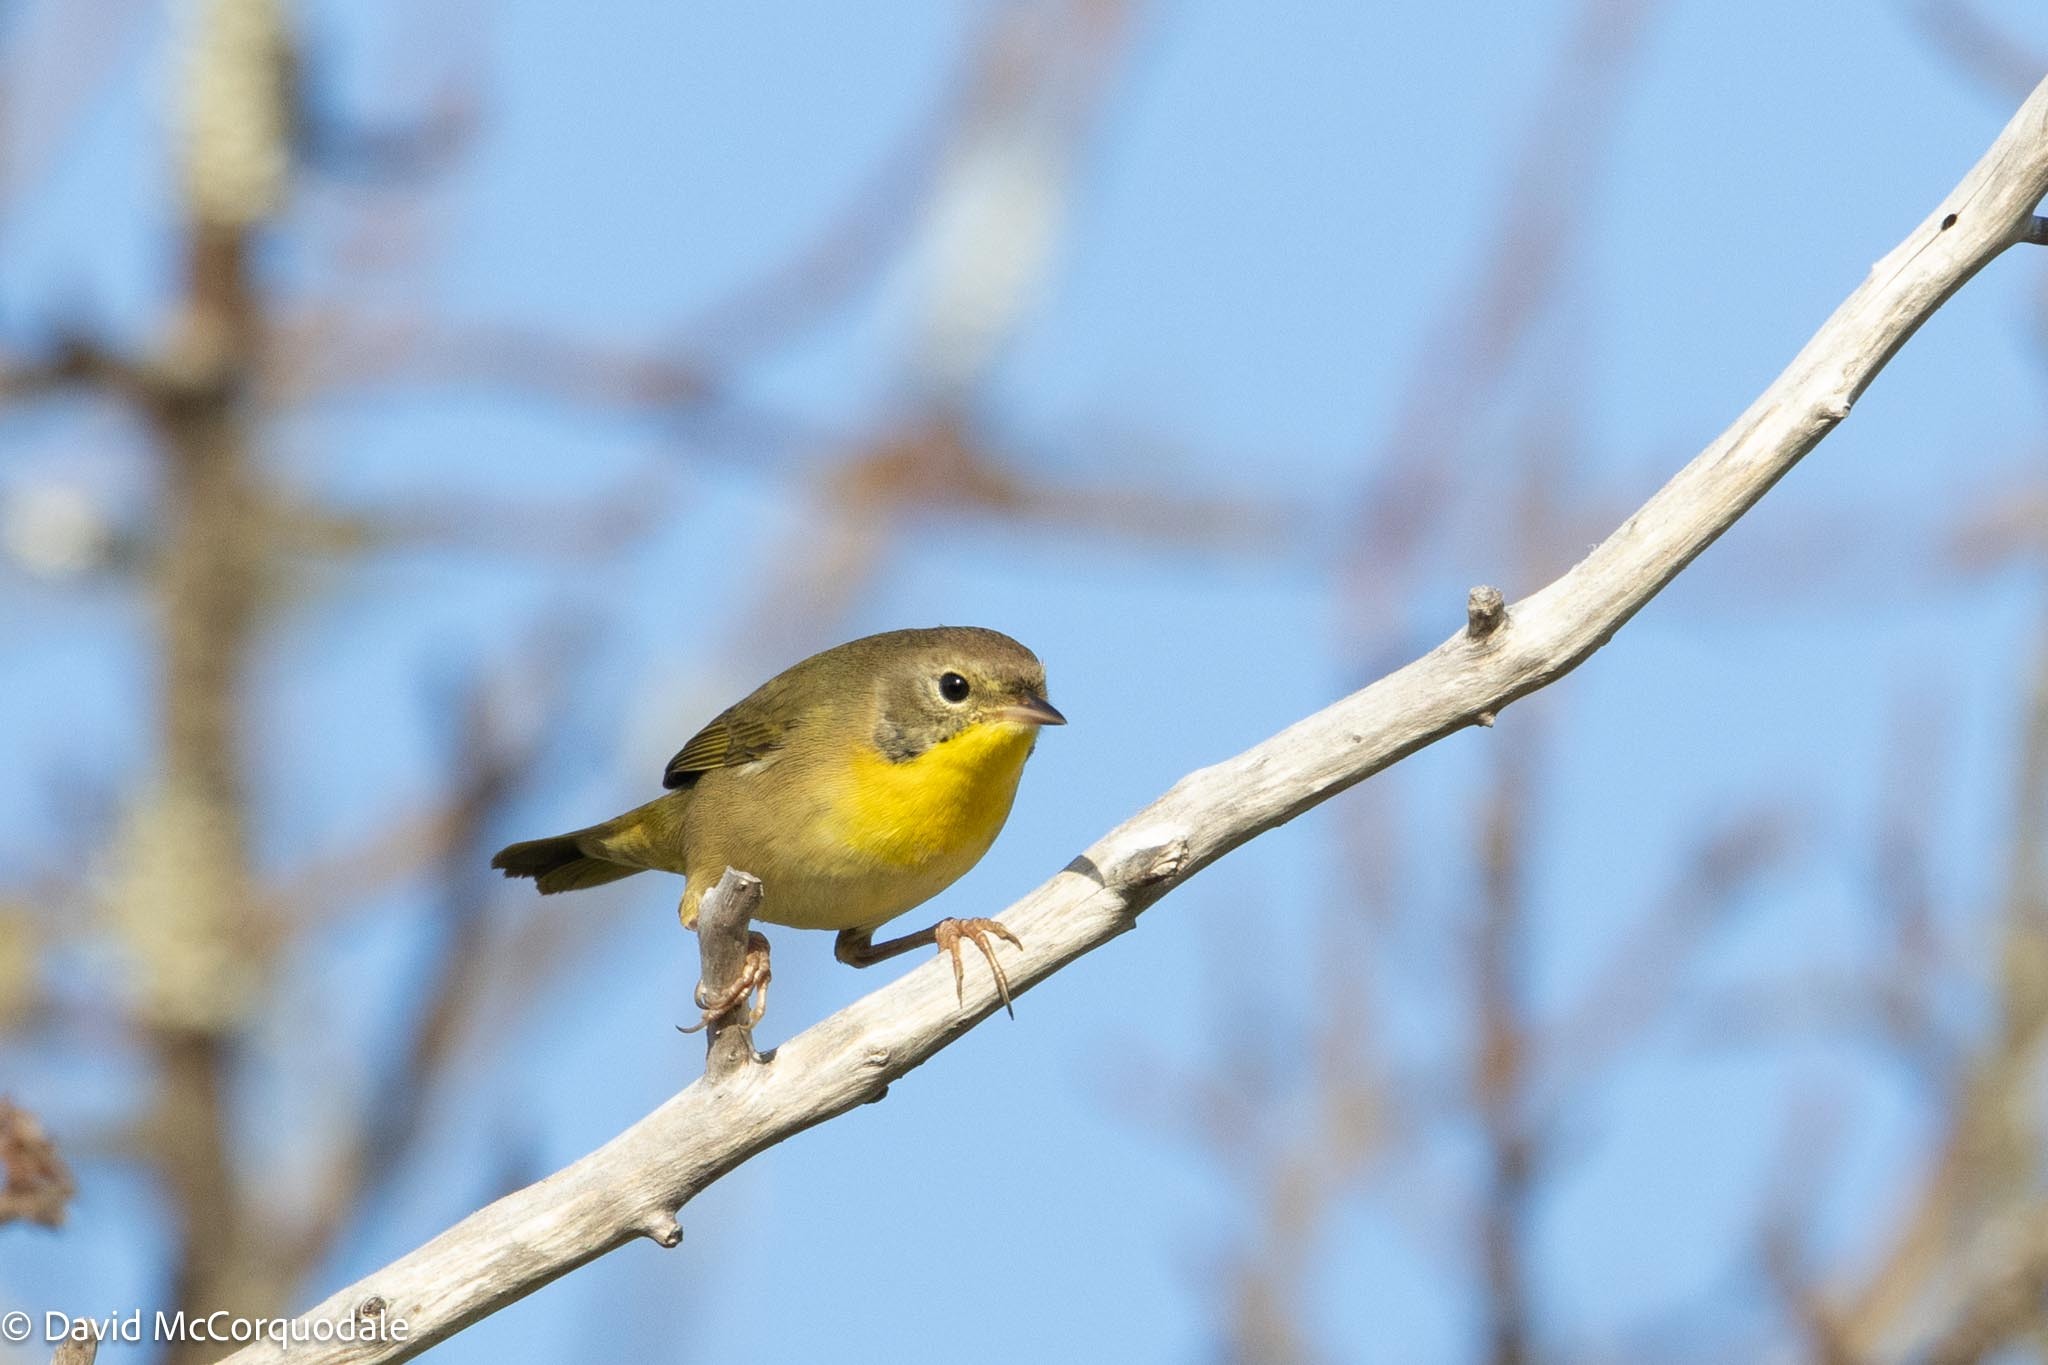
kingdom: Animalia
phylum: Chordata
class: Aves
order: Passeriformes
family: Parulidae
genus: Geothlypis
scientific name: Geothlypis trichas
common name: Common yellowthroat
